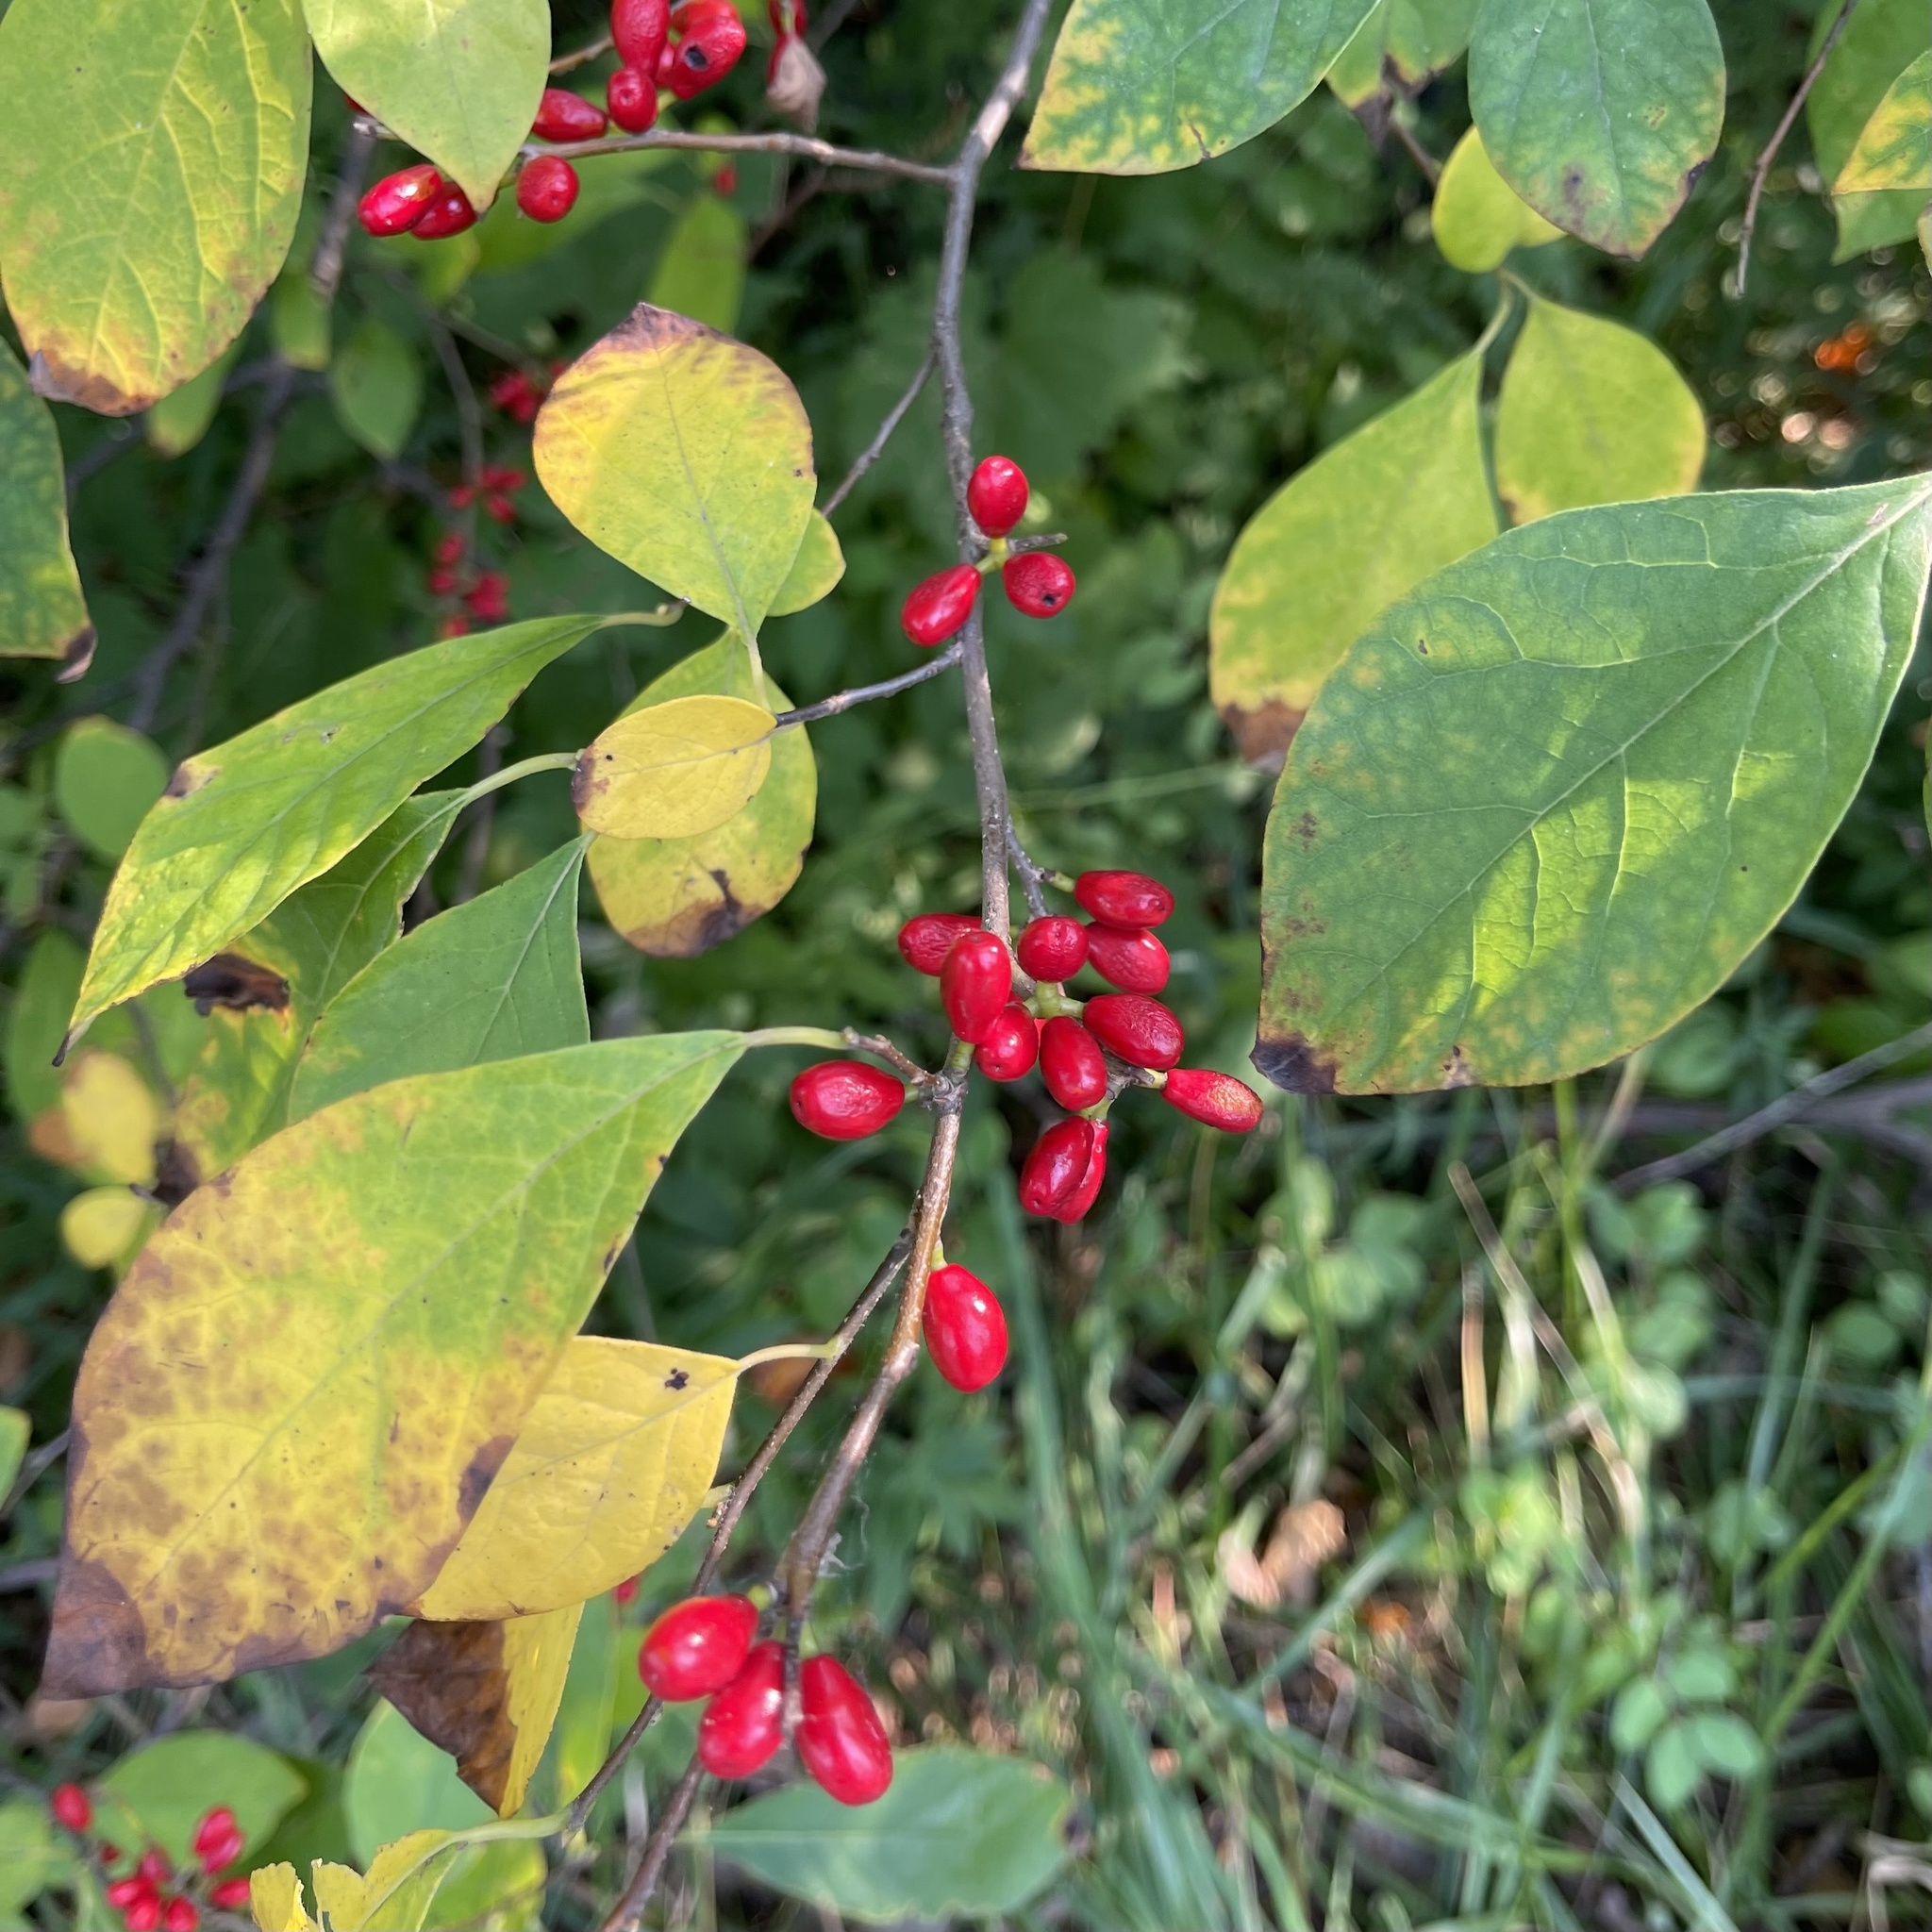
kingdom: Plantae
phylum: Tracheophyta
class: Magnoliopsida
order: Laurales
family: Lauraceae
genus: Lindera
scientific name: Lindera benzoin
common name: Spicebush
